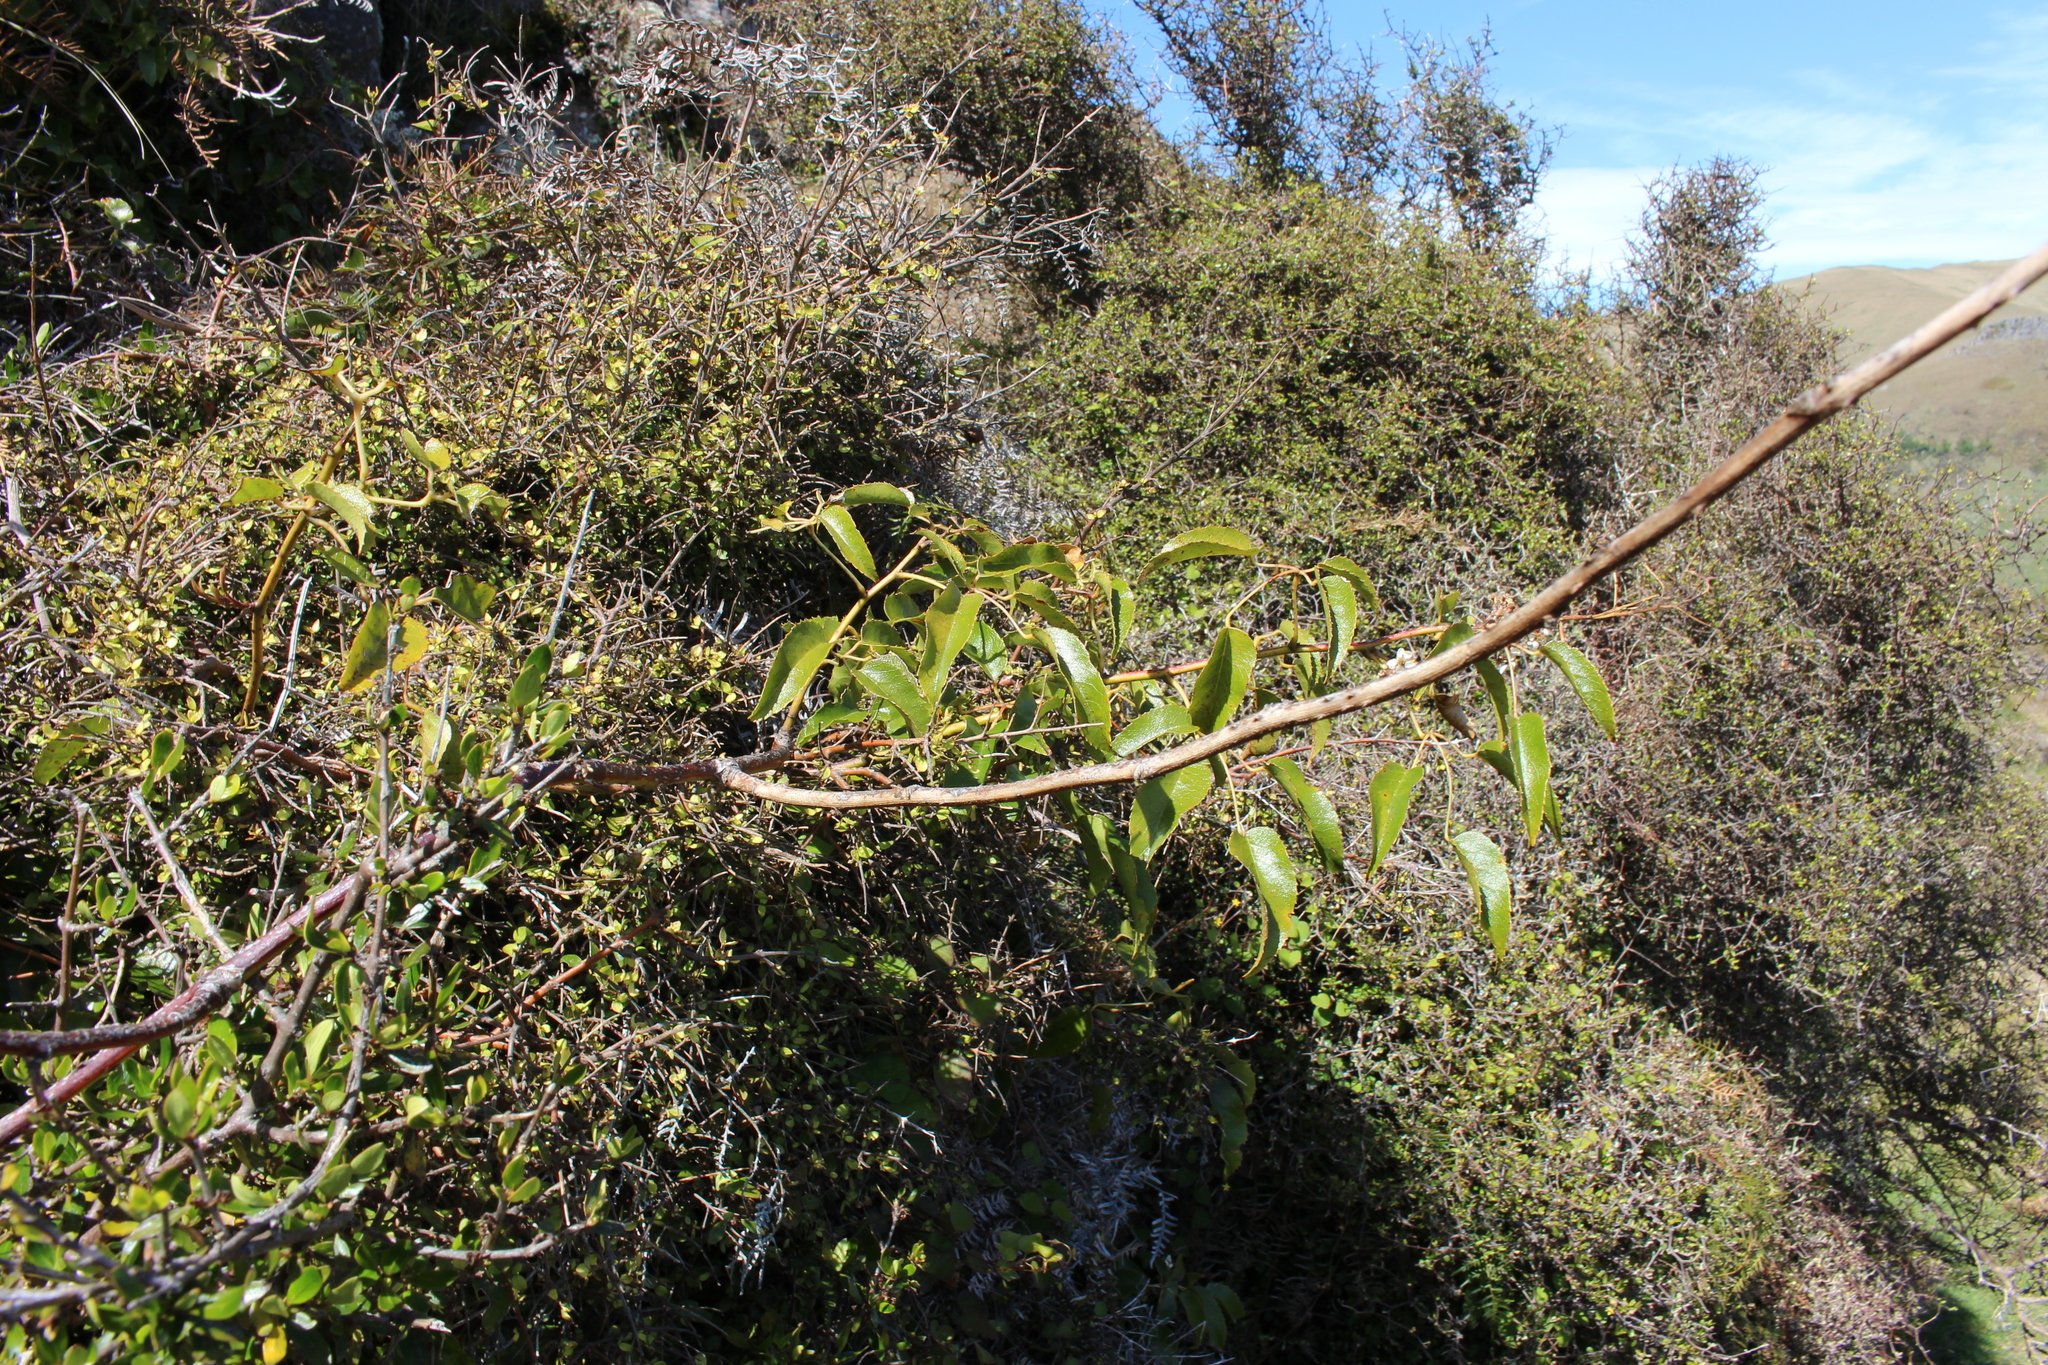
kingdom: Plantae
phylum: Tracheophyta
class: Magnoliopsida
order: Rosales
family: Rosaceae
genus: Rubus
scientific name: Rubus cissoides
